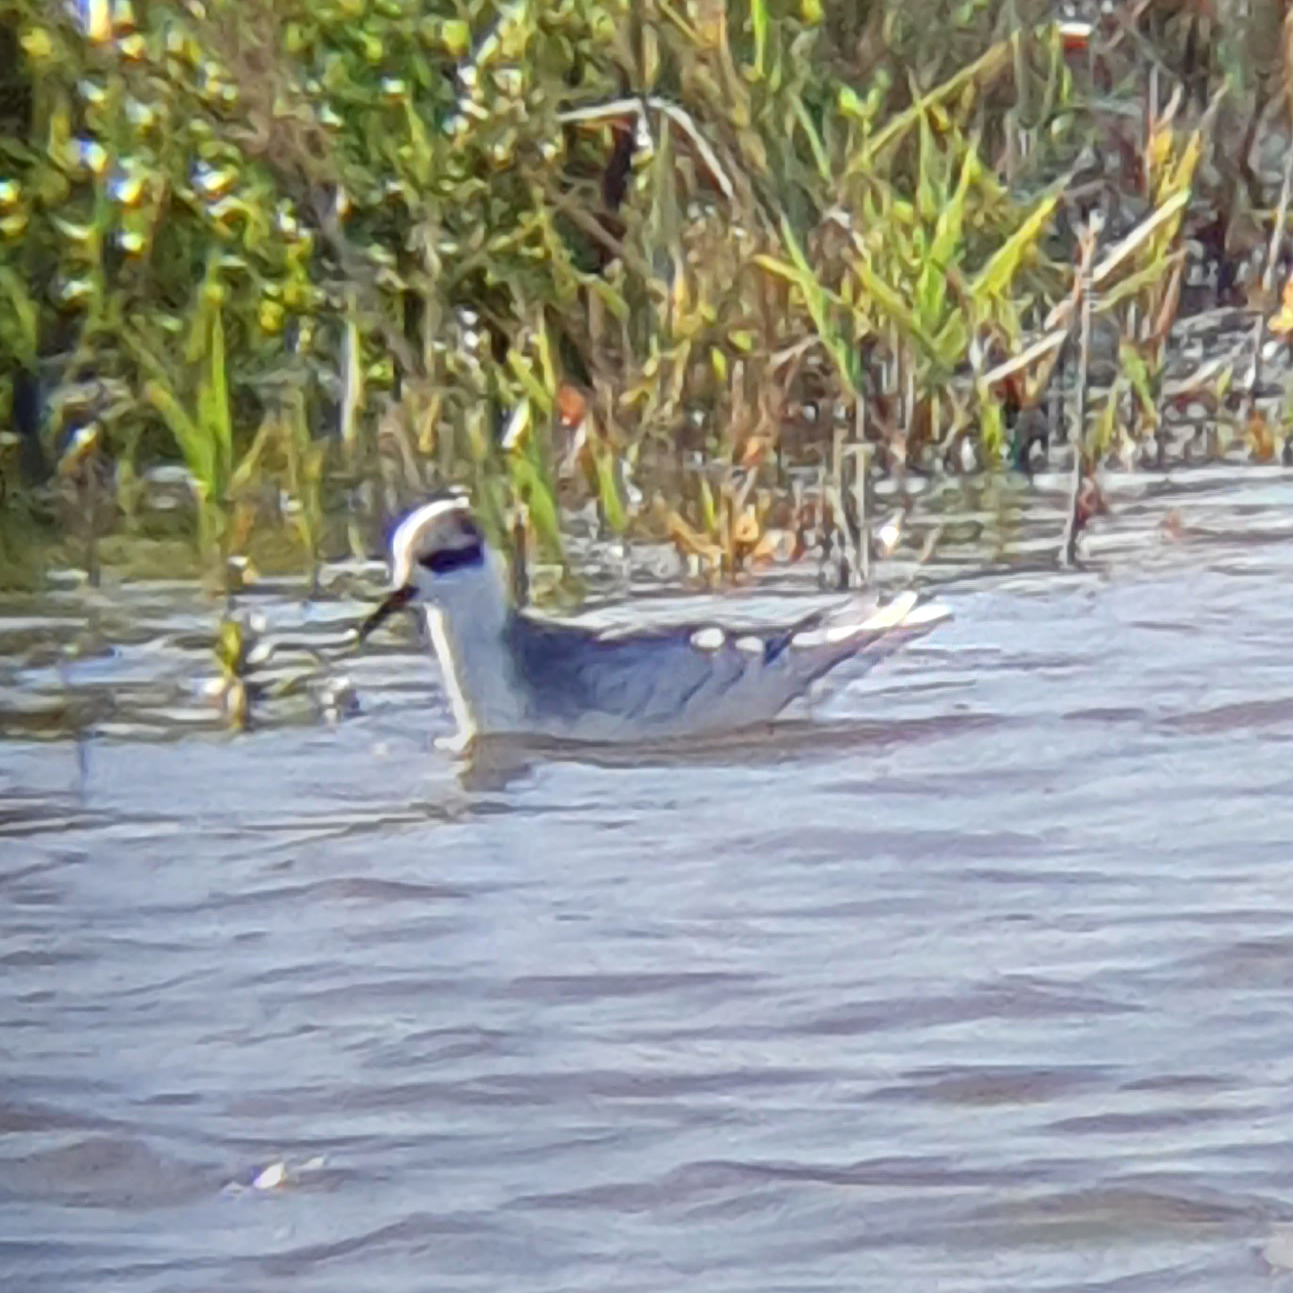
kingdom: Animalia
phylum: Chordata
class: Aves
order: Charadriiformes
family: Scolopacidae
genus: Phalaropus
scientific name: Phalaropus fulicarius
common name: Red phalarope
